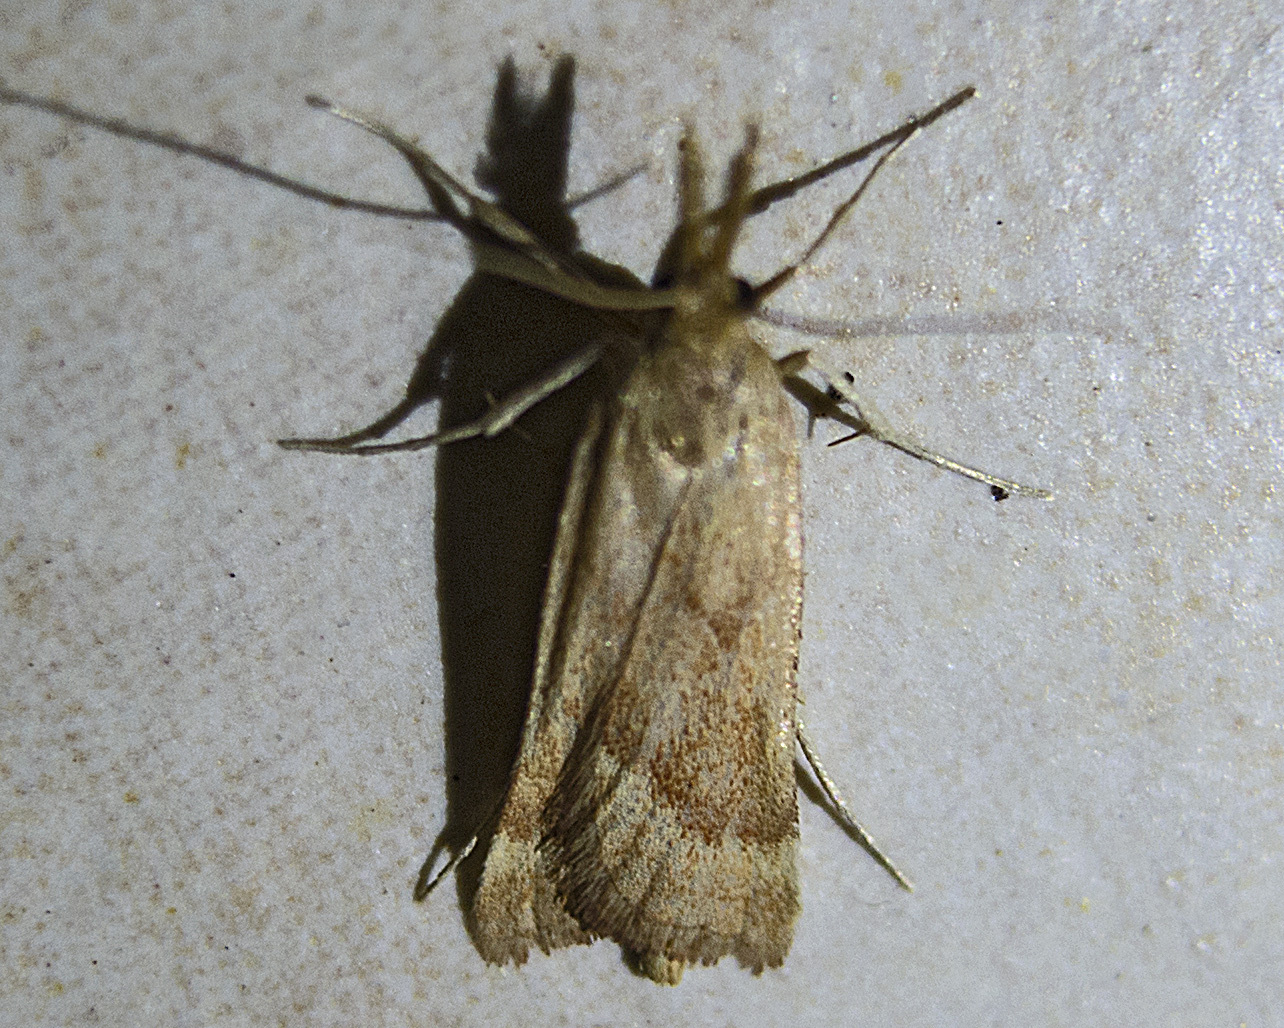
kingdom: Animalia
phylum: Arthropoda
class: Insecta
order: Lepidoptera
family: Pyralidae
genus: Synaphe
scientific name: Synaphe punctalis
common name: Long-legged tabby
